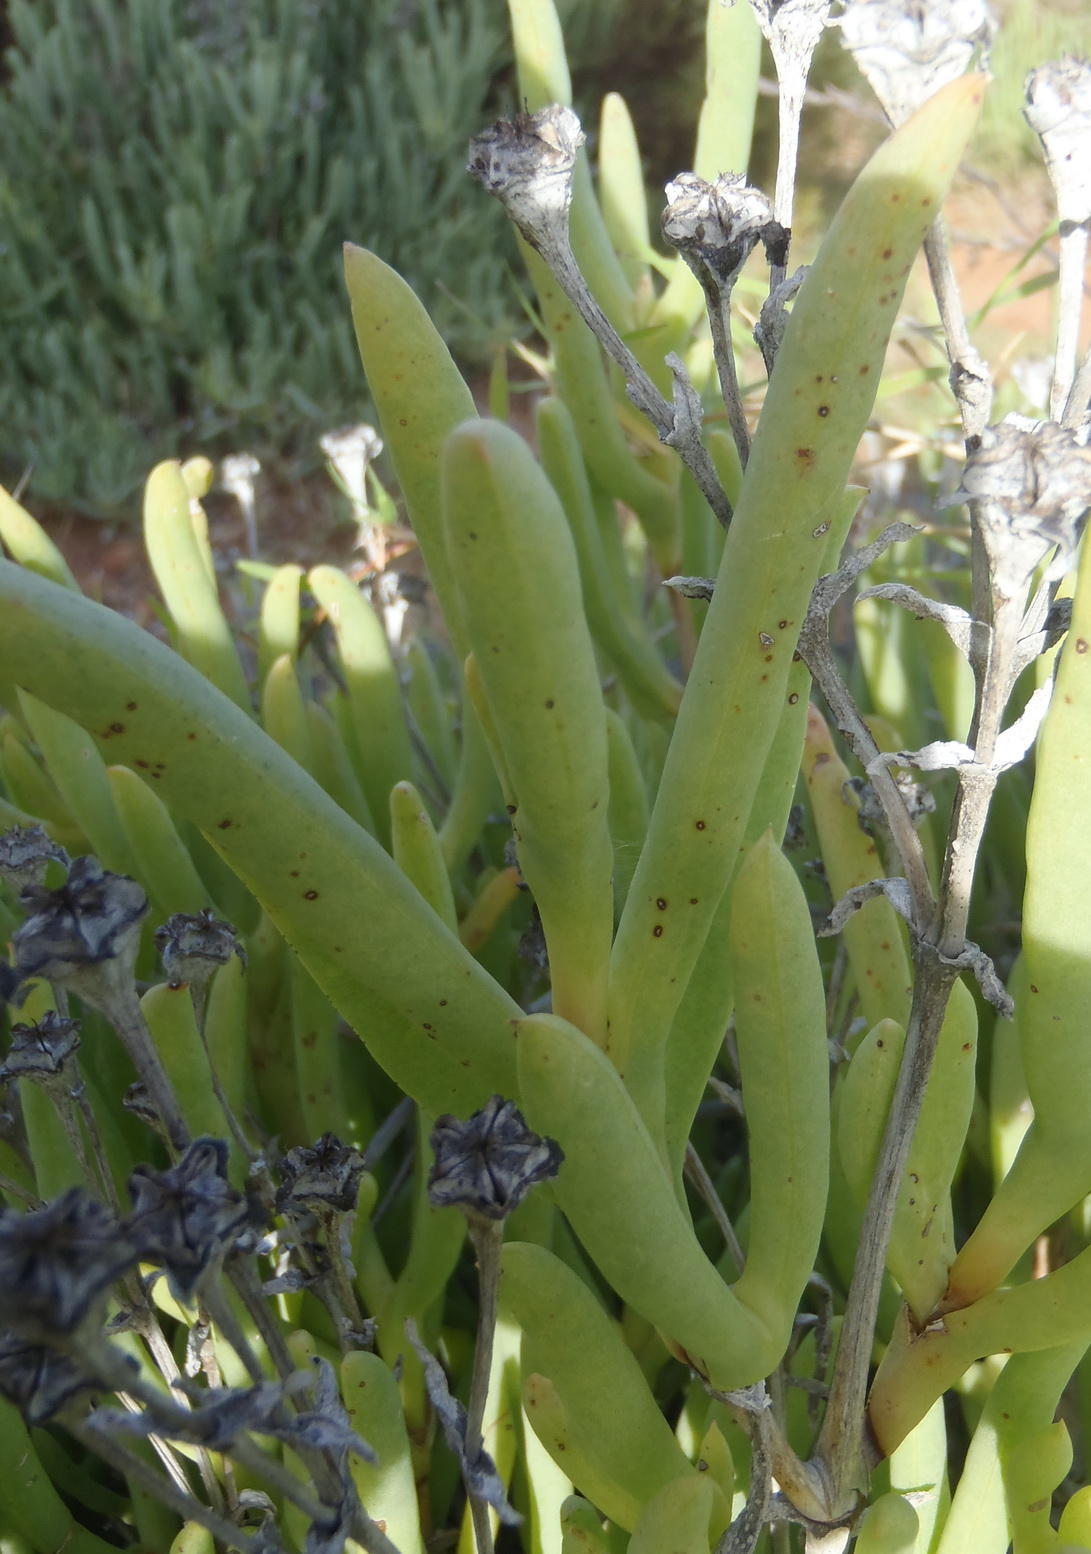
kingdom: Plantae
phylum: Tracheophyta
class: Magnoliopsida
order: Caryophyllales
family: Aizoaceae
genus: Ruschia
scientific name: Ruschia caroli
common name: Shrubby dewplant
